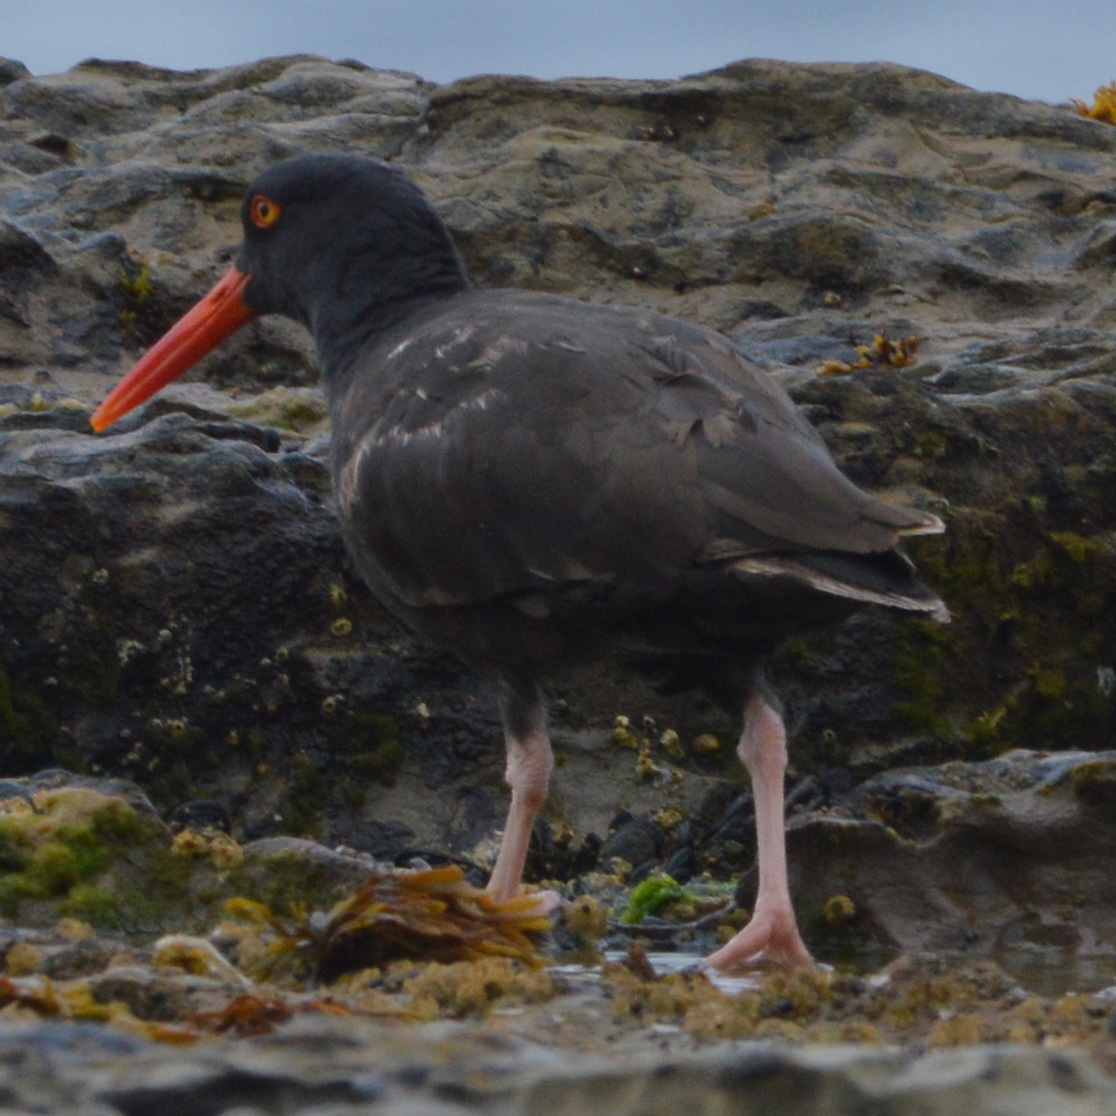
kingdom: Animalia
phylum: Chordata
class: Aves
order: Charadriiformes
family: Haematopodidae
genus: Haematopus
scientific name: Haematopus bachmani
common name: Black oystercatcher
